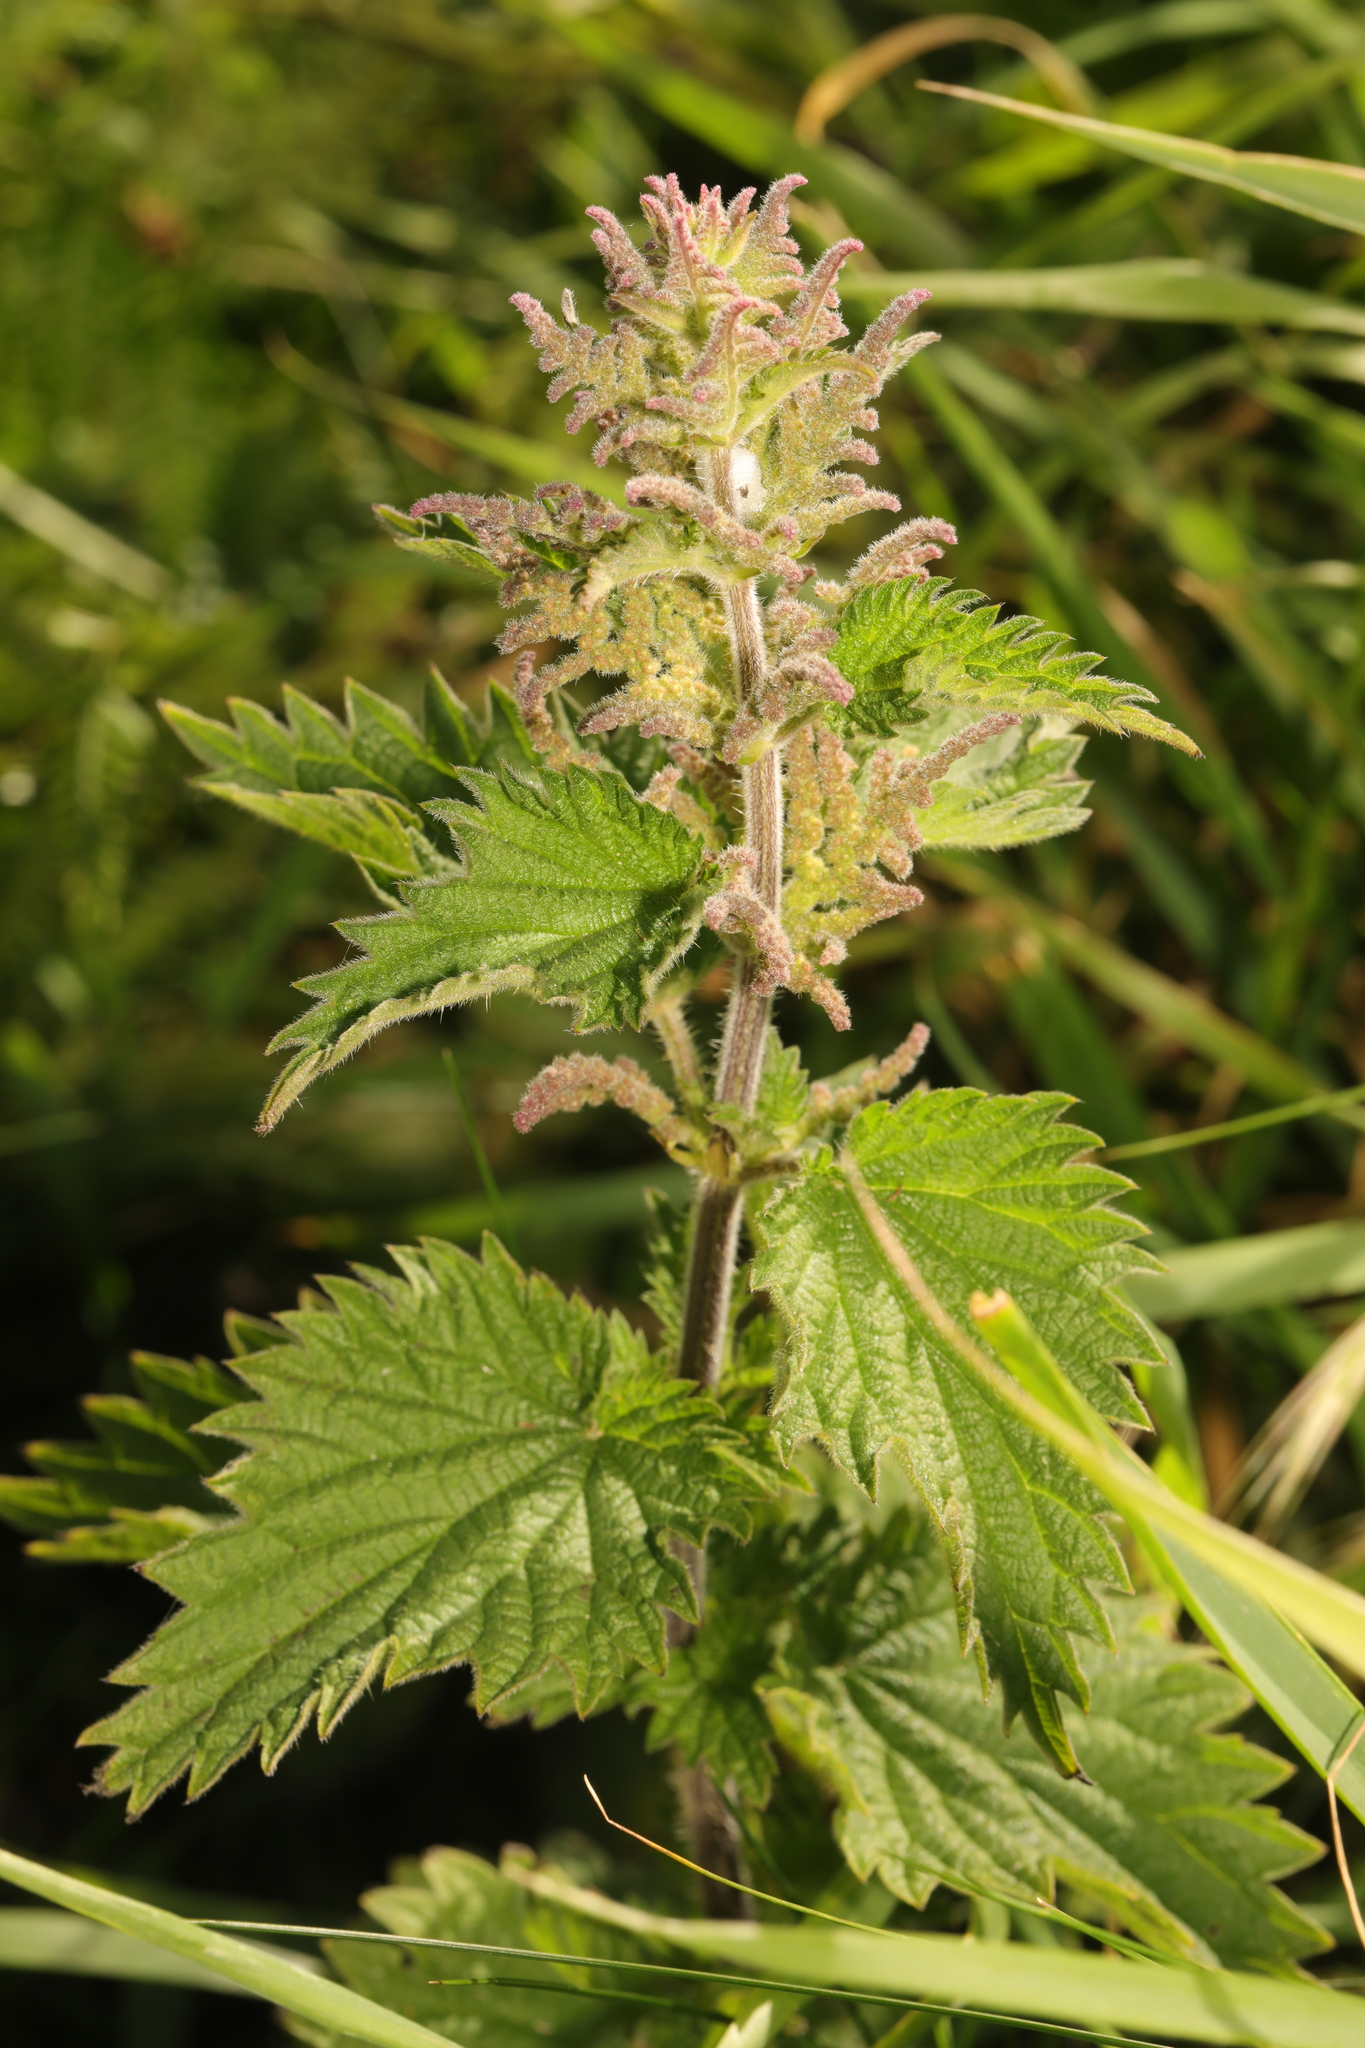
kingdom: Plantae
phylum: Tracheophyta
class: Magnoliopsida
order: Rosales
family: Urticaceae
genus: Urtica
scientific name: Urtica dioica
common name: Common nettle
